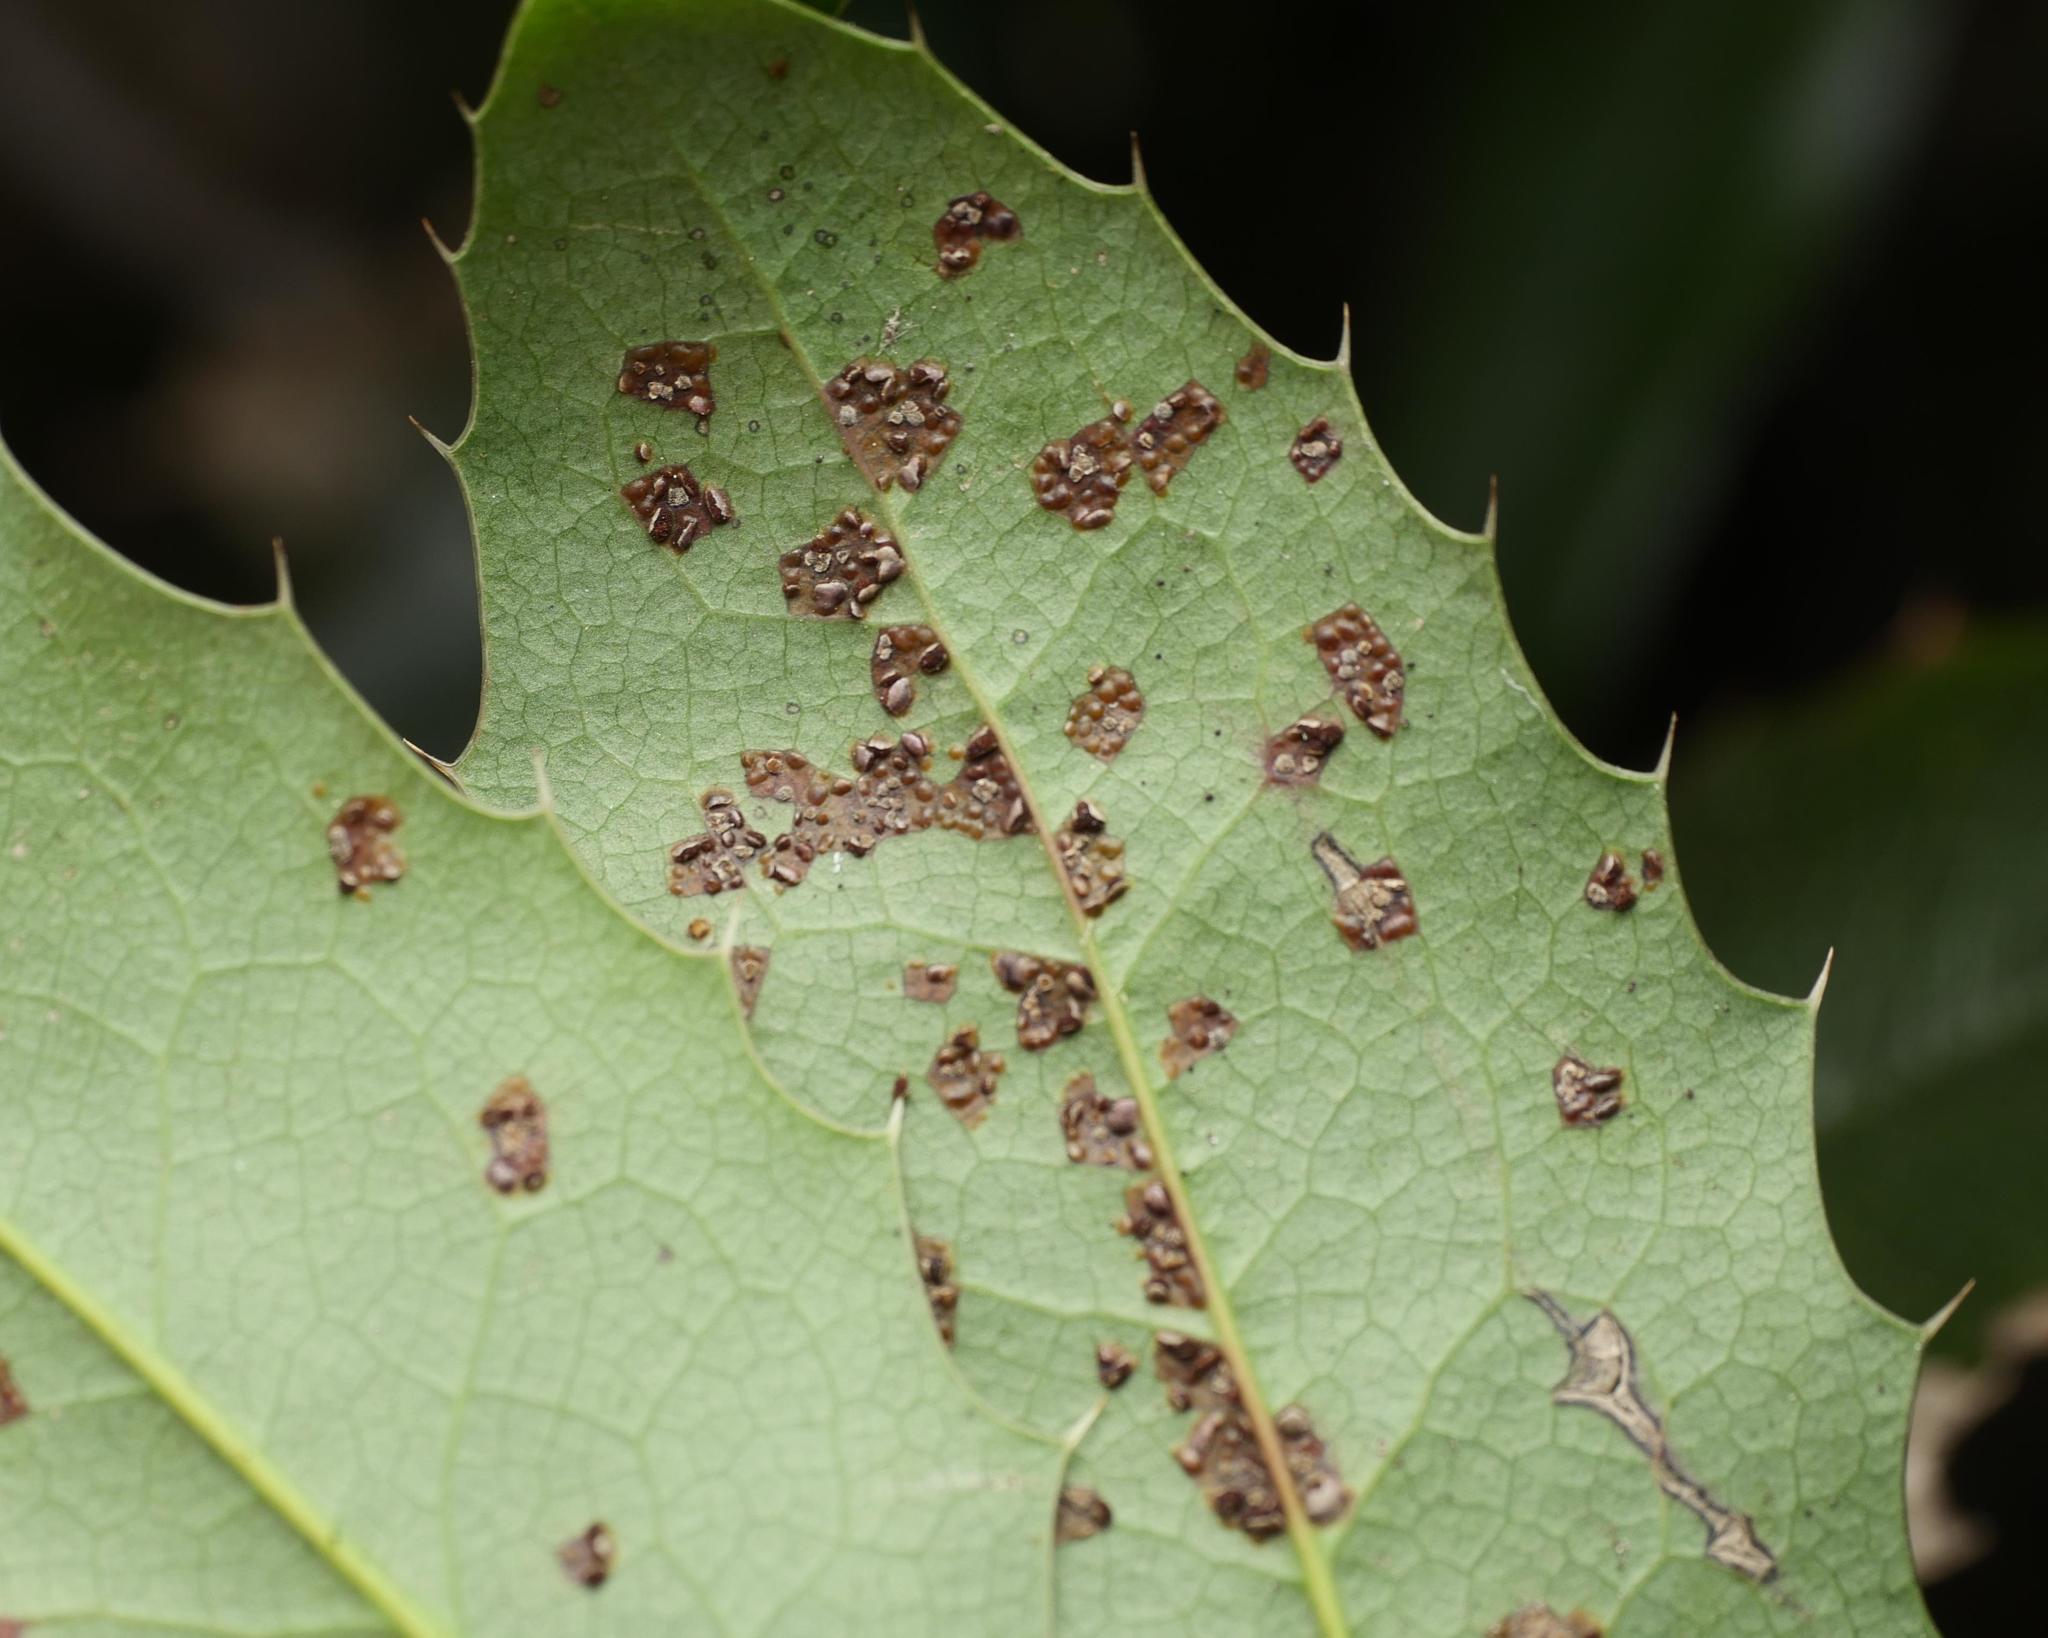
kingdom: Fungi
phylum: Basidiomycota
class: Pucciniomycetes
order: Pucciniales
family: Pucciniaceae
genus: Cumminsiella
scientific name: Cumminsiella mirabilissima
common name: Mahonia rust
